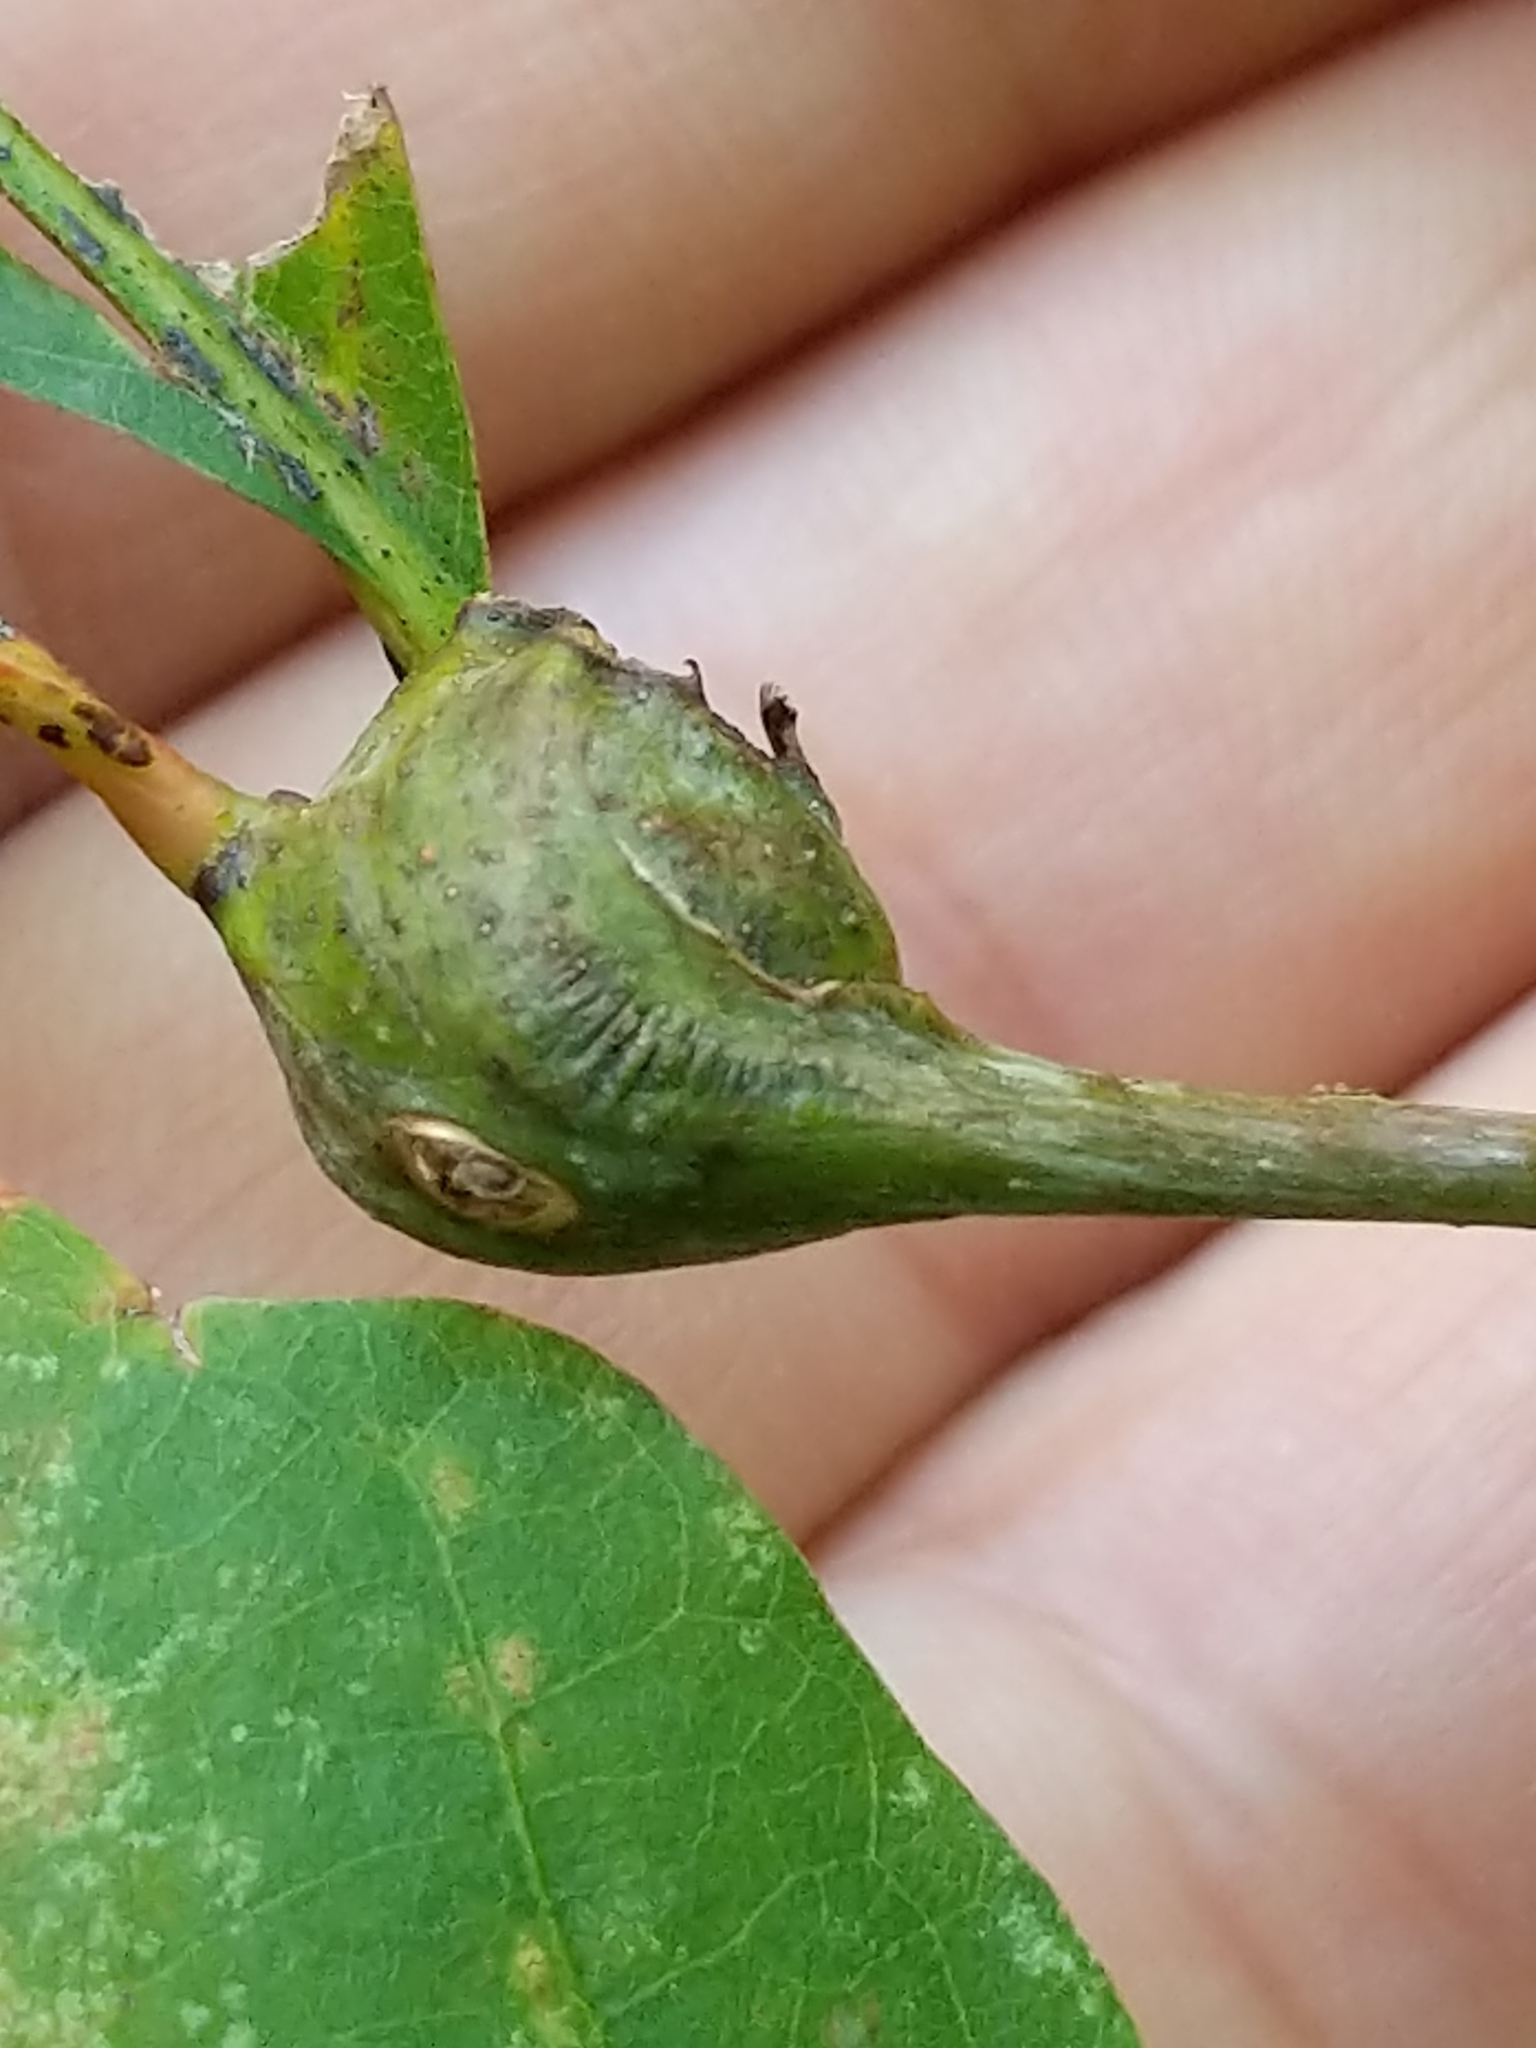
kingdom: Animalia
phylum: Arthropoda
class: Insecta
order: Hymenoptera
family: Cynipidae
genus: Callirhytis
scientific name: Callirhytis clavula
